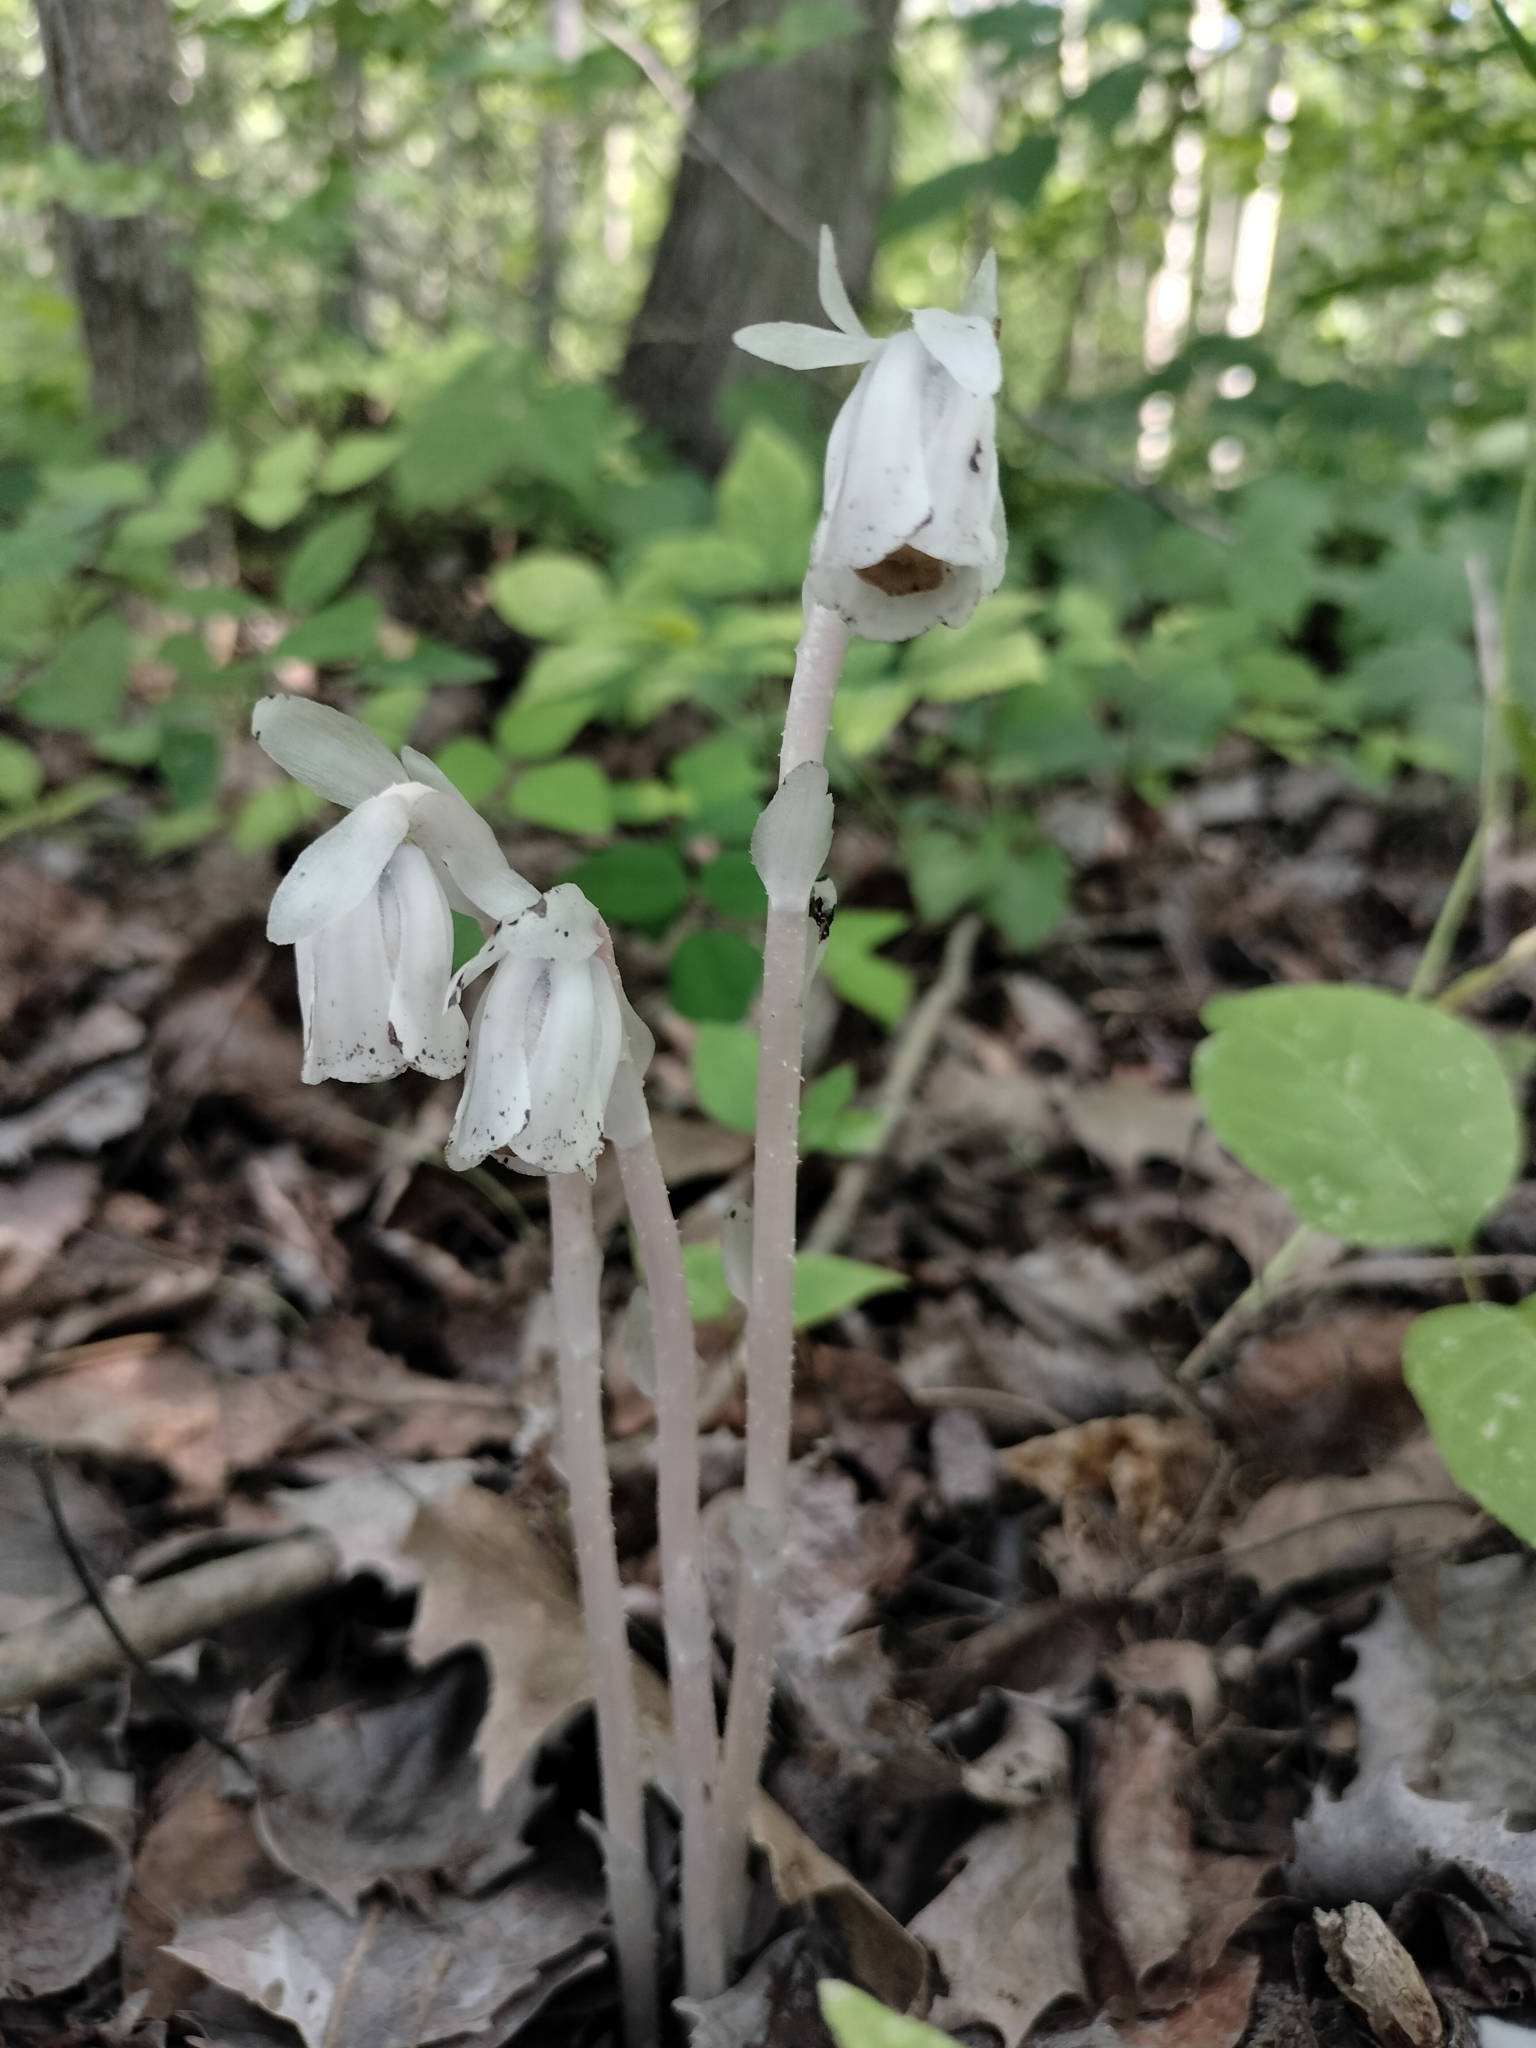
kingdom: Plantae
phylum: Tracheophyta
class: Magnoliopsida
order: Ericales
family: Ericaceae
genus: Monotropa
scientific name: Monotropa uniflora
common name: Convulsion root
